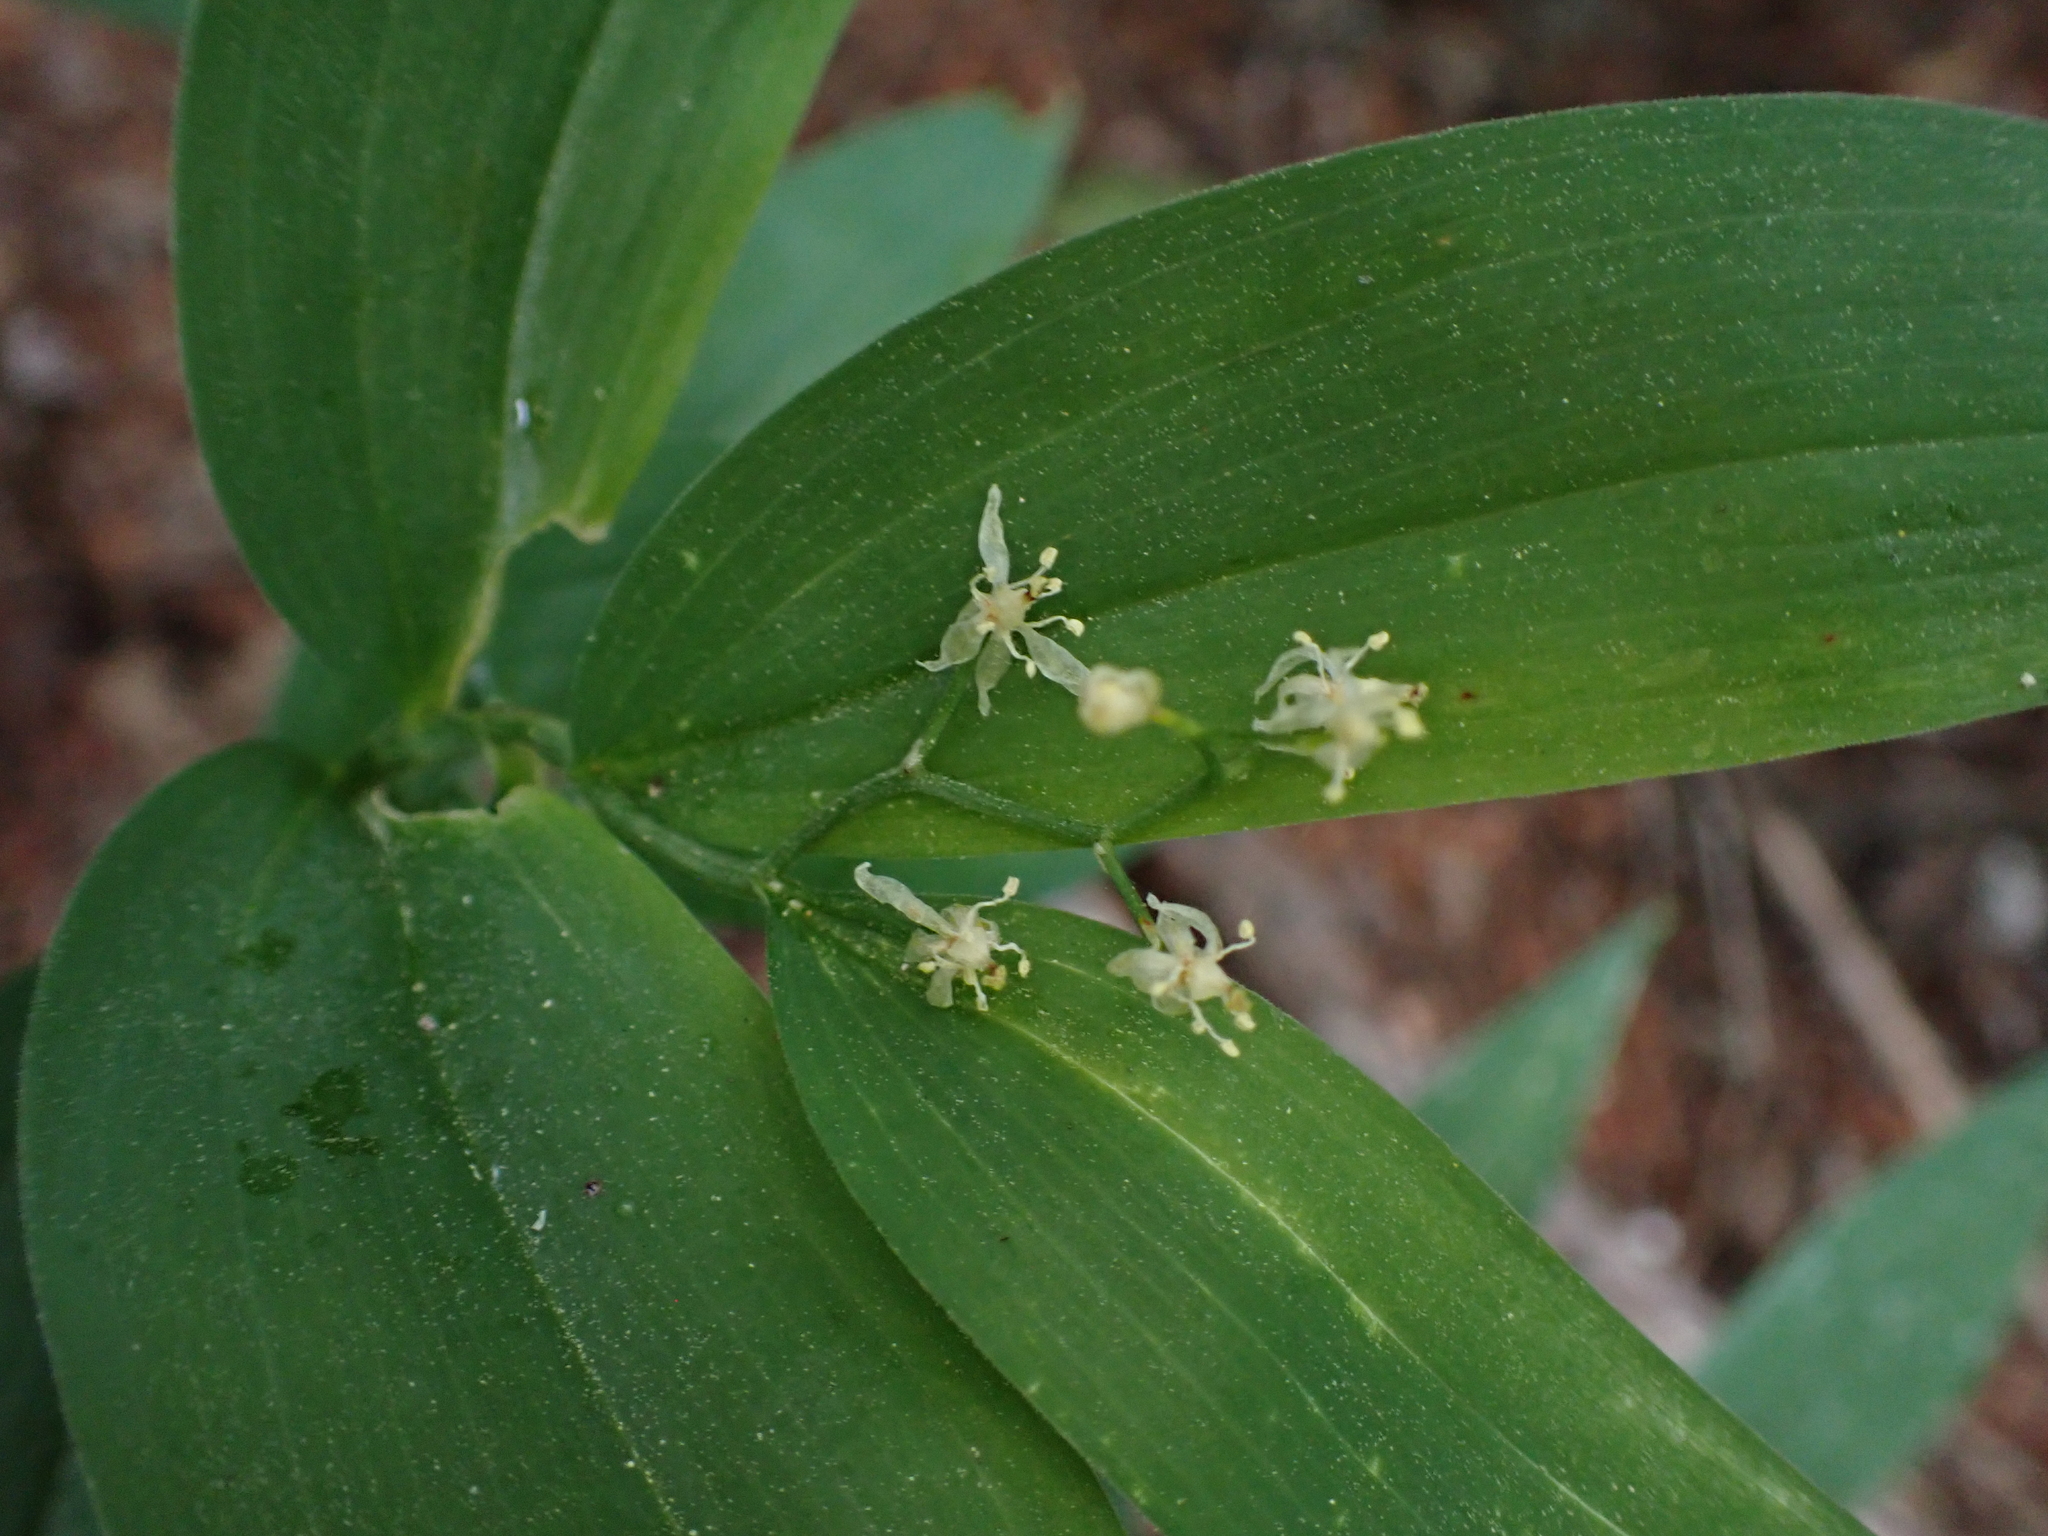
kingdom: Plantae
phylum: Tracheophyta
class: Liliopsida
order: Asparagales
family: Asparagaceae
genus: Maianthemum
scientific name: Maianthemum stellatum
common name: Little false solomon's seal
